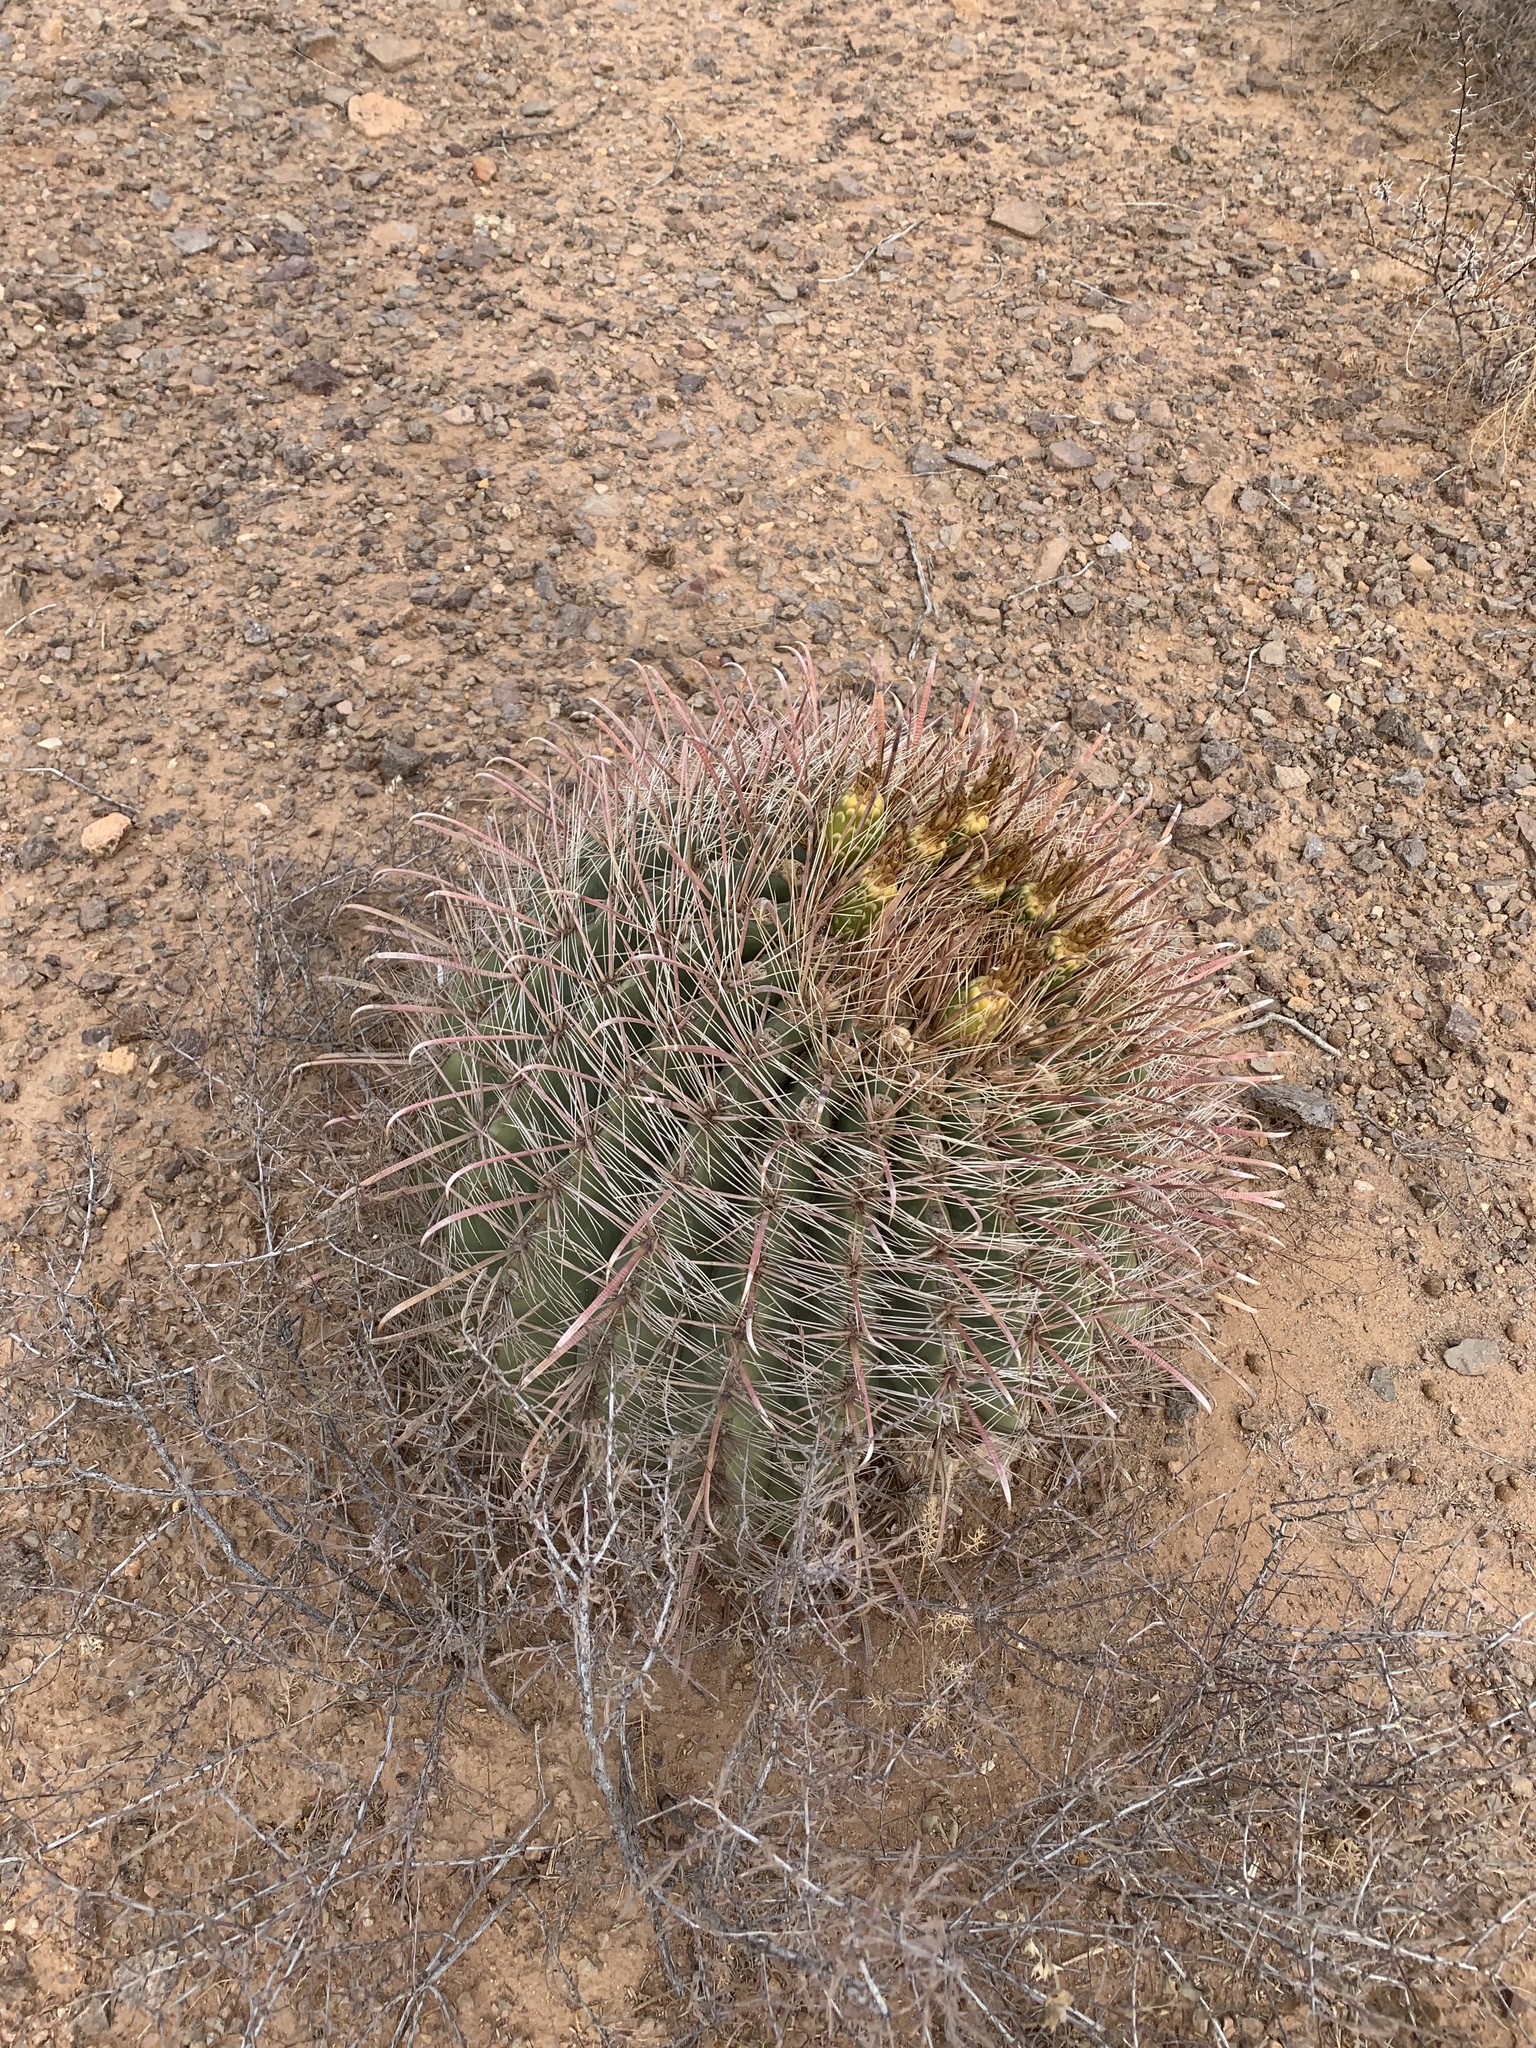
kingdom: Plantae
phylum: Tracheophyta
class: Magnoliopsida
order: Caryophyllales
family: Cactaceae
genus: Ferocactus
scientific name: Ferocactus wislizeni
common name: Candy barrel cactus
